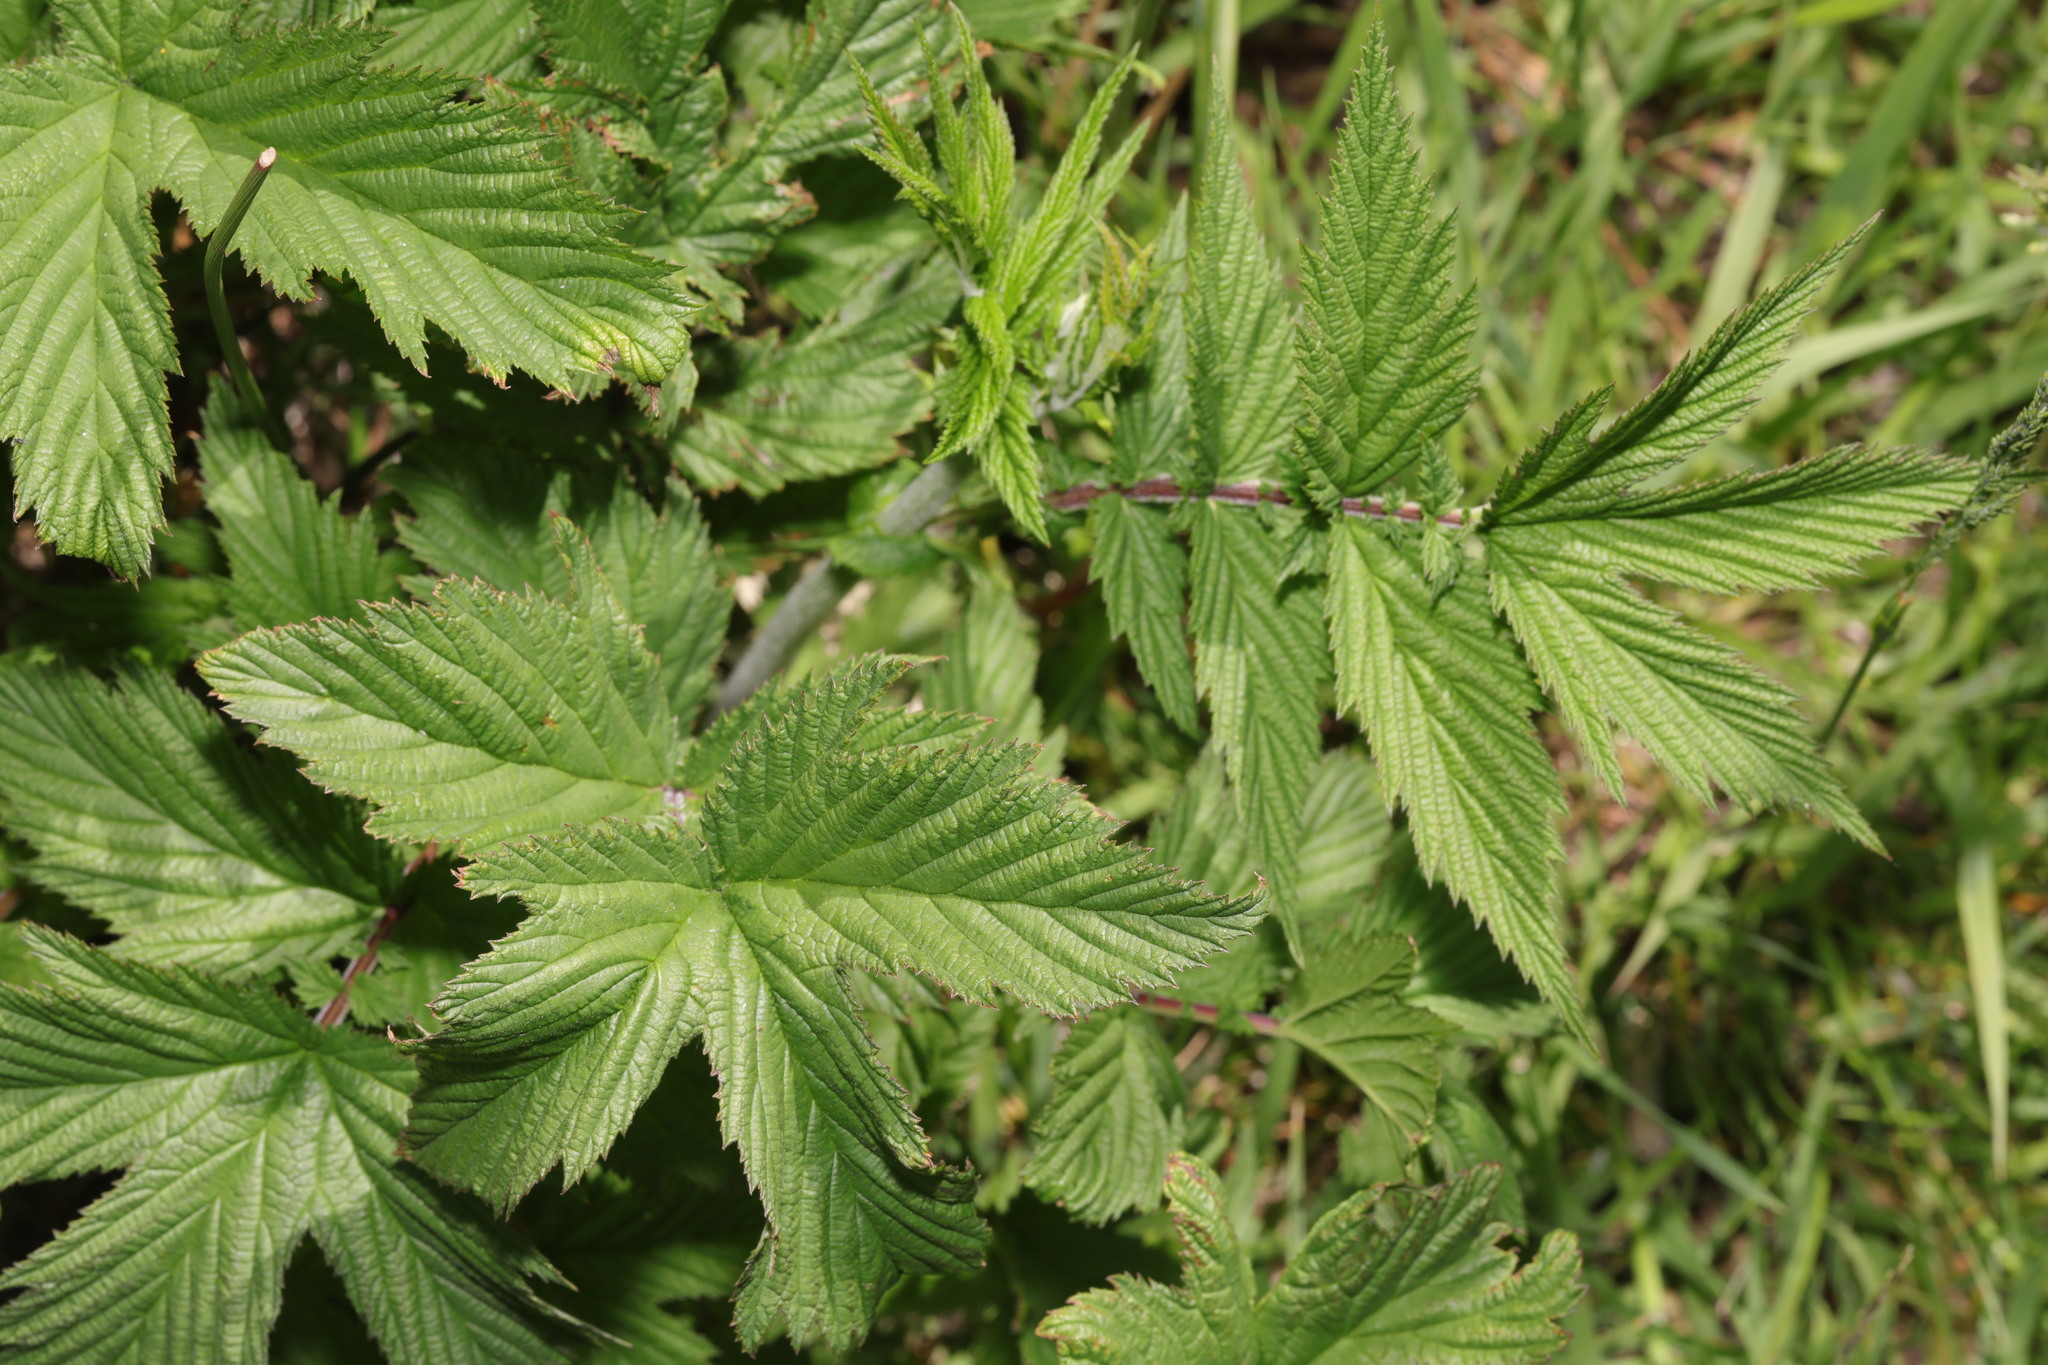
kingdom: Plantae
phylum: Tracheophyta
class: Magnoliopsida
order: Rosales
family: Rosaceae
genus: Filipendula
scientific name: Filipendula ulmaria
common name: Meadowsweet
